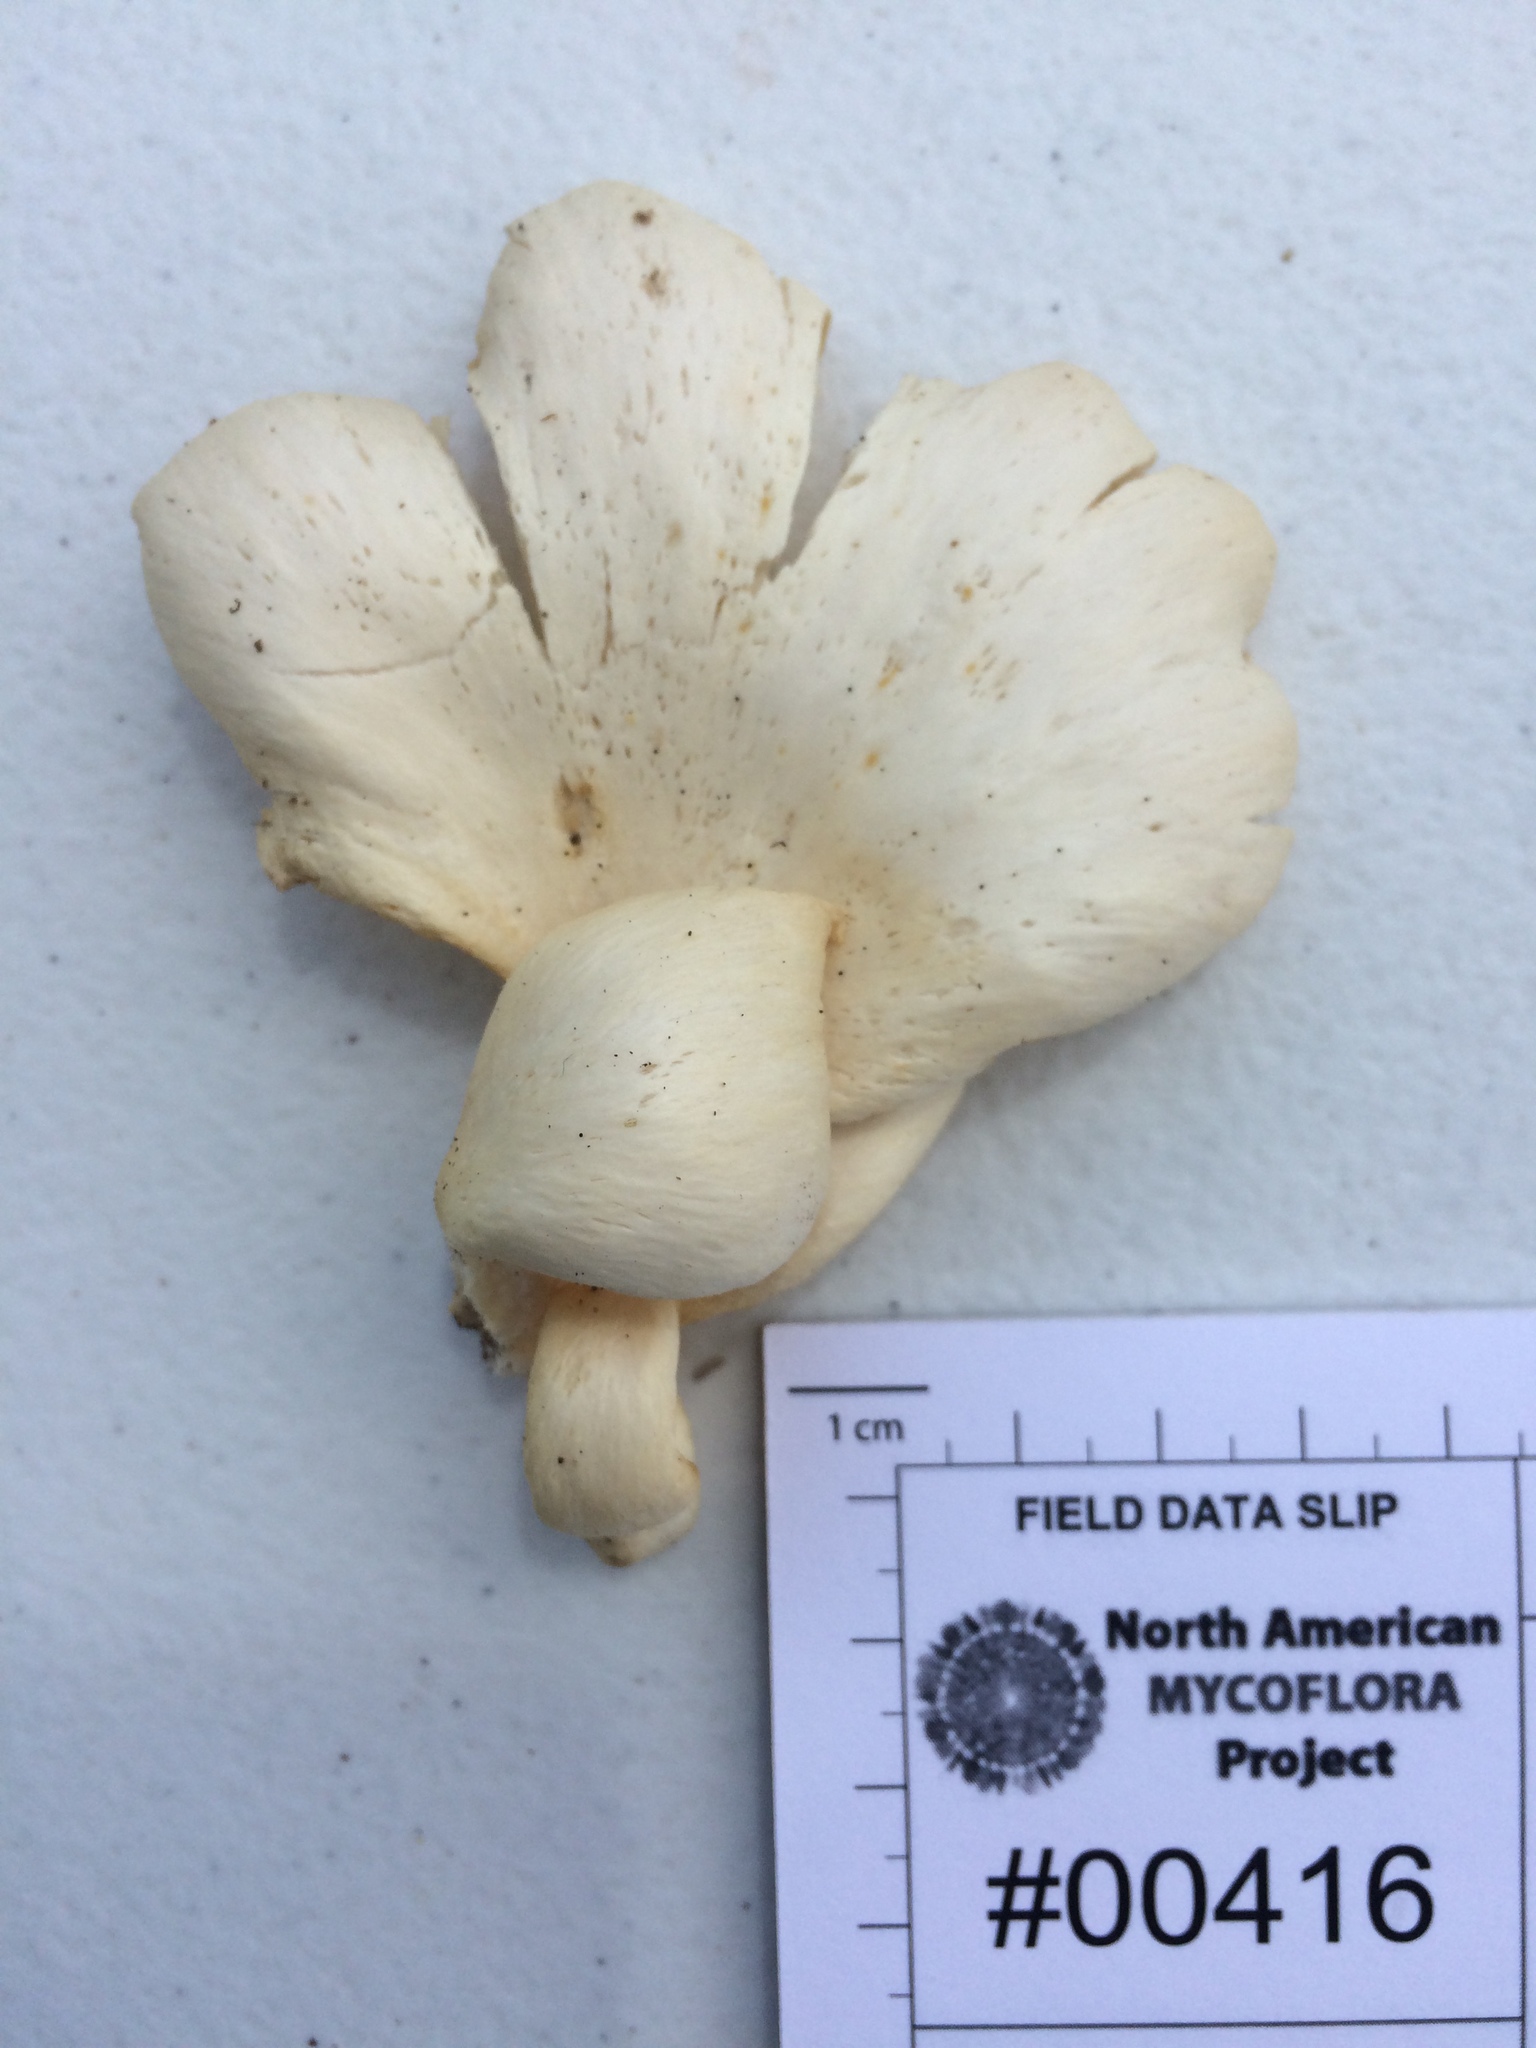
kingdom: Fungi
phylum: Basidiomycota
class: Agaricomycetes
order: Agaricales
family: Pleurotaceae
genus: Pleurotus
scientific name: Pleurotus pulmonarius
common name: Pale oyster
